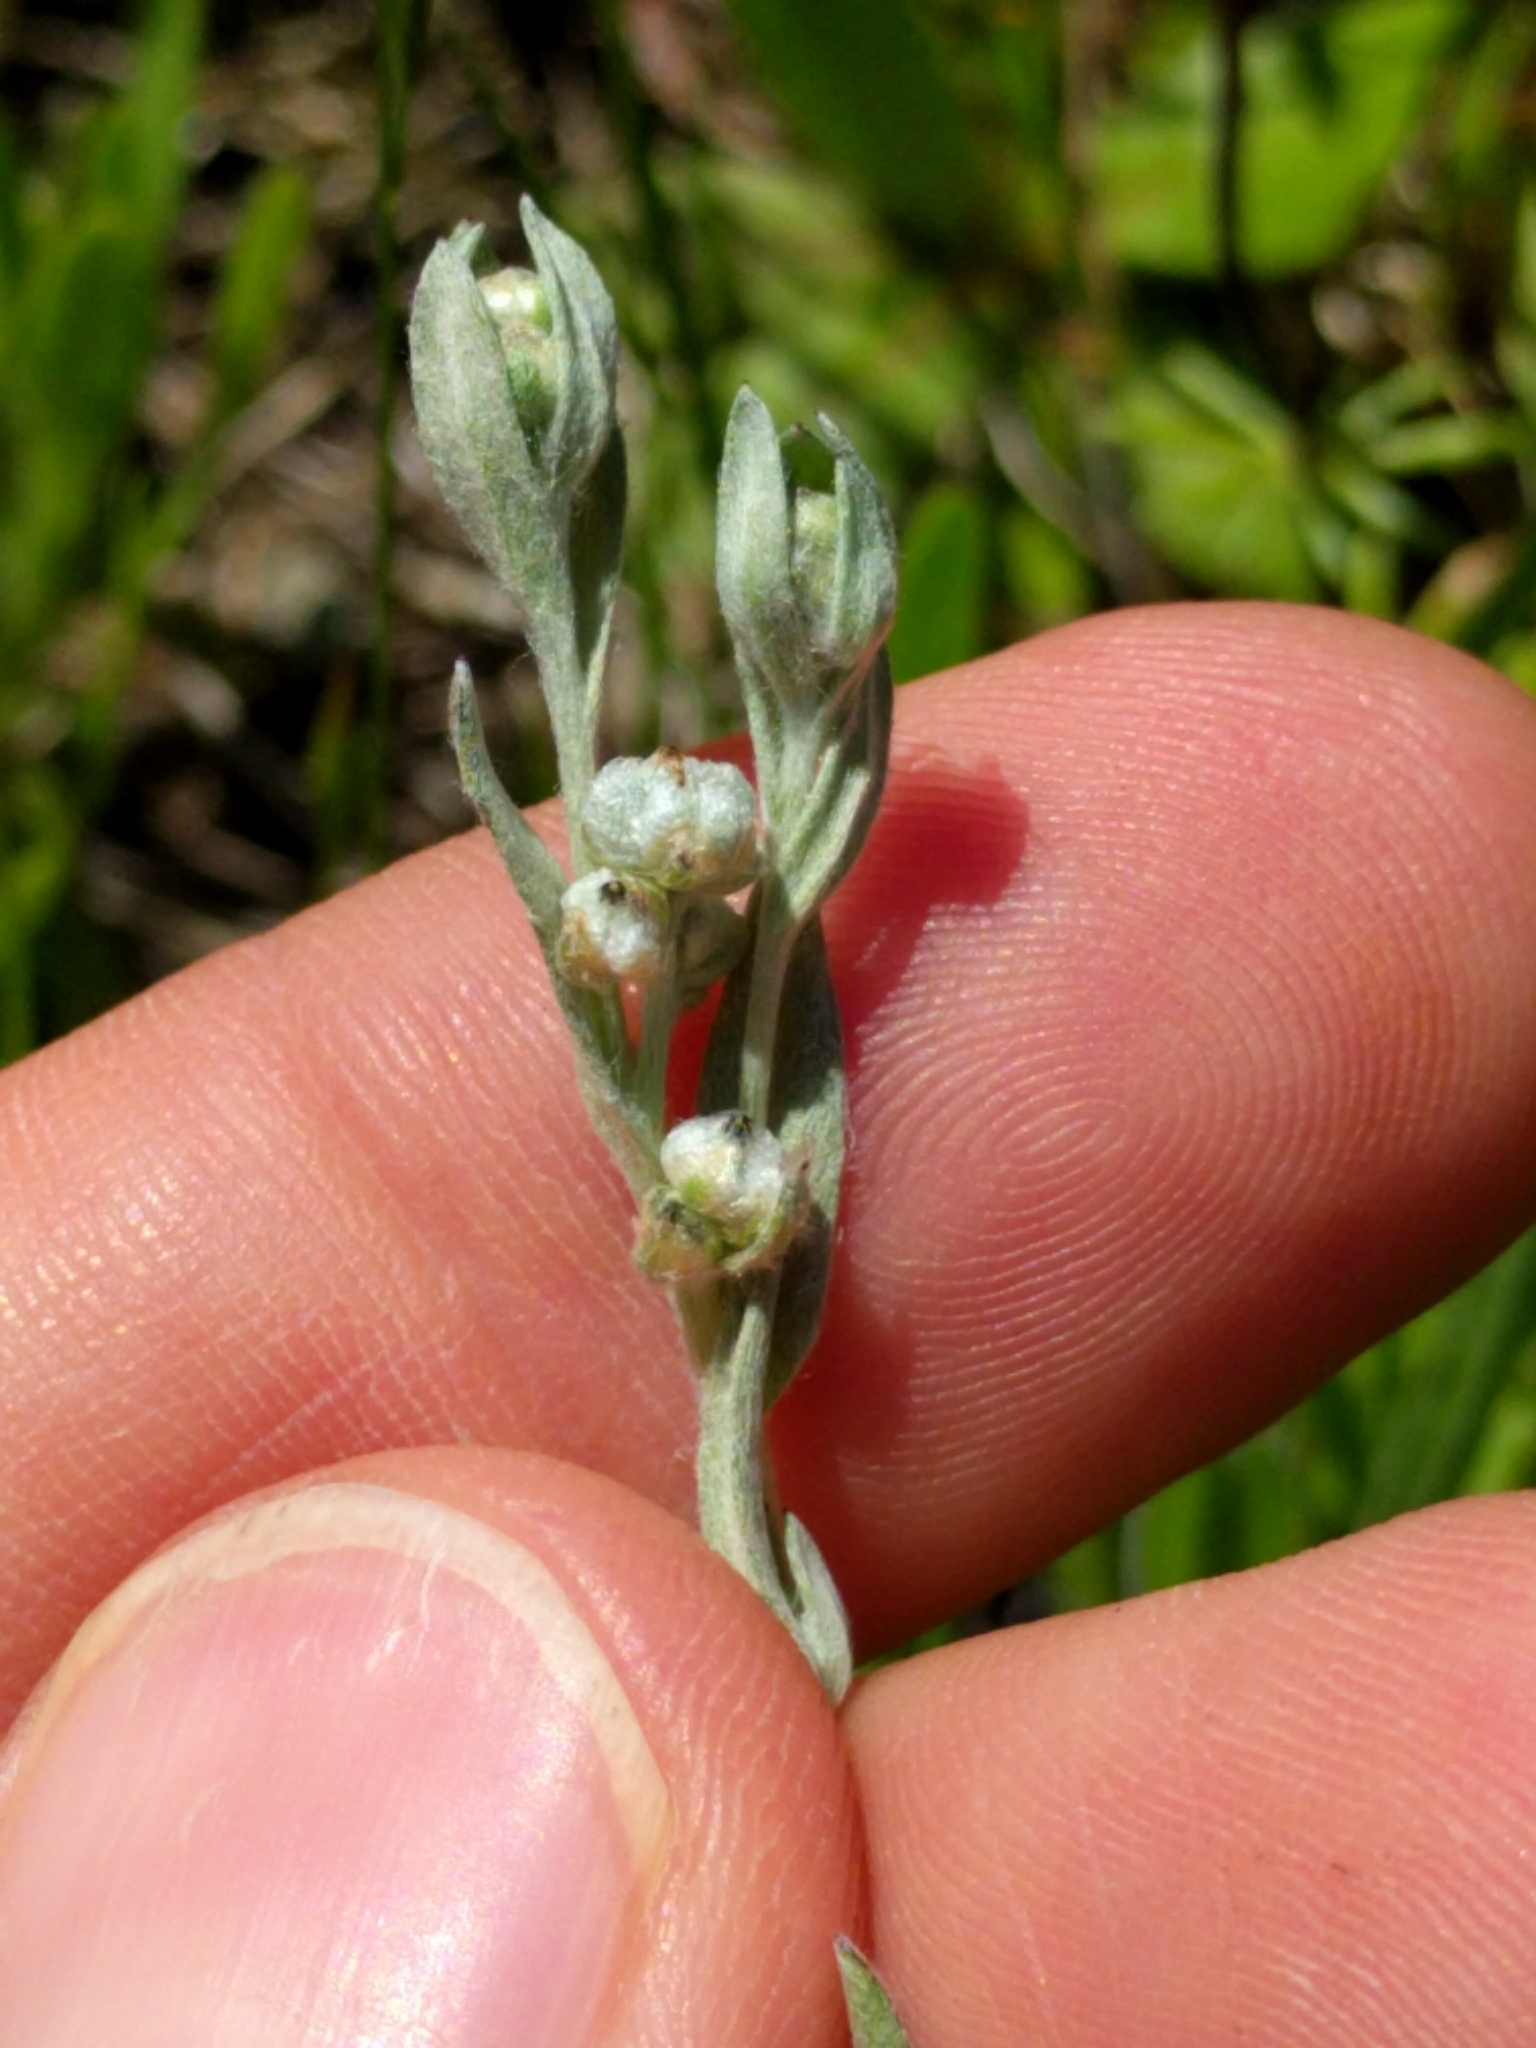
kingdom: Plantae
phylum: Tracheophyta
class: Magnoliopsida
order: Asterales
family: Asteraceae
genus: Bombycilaena
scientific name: Bombycilaena californica
